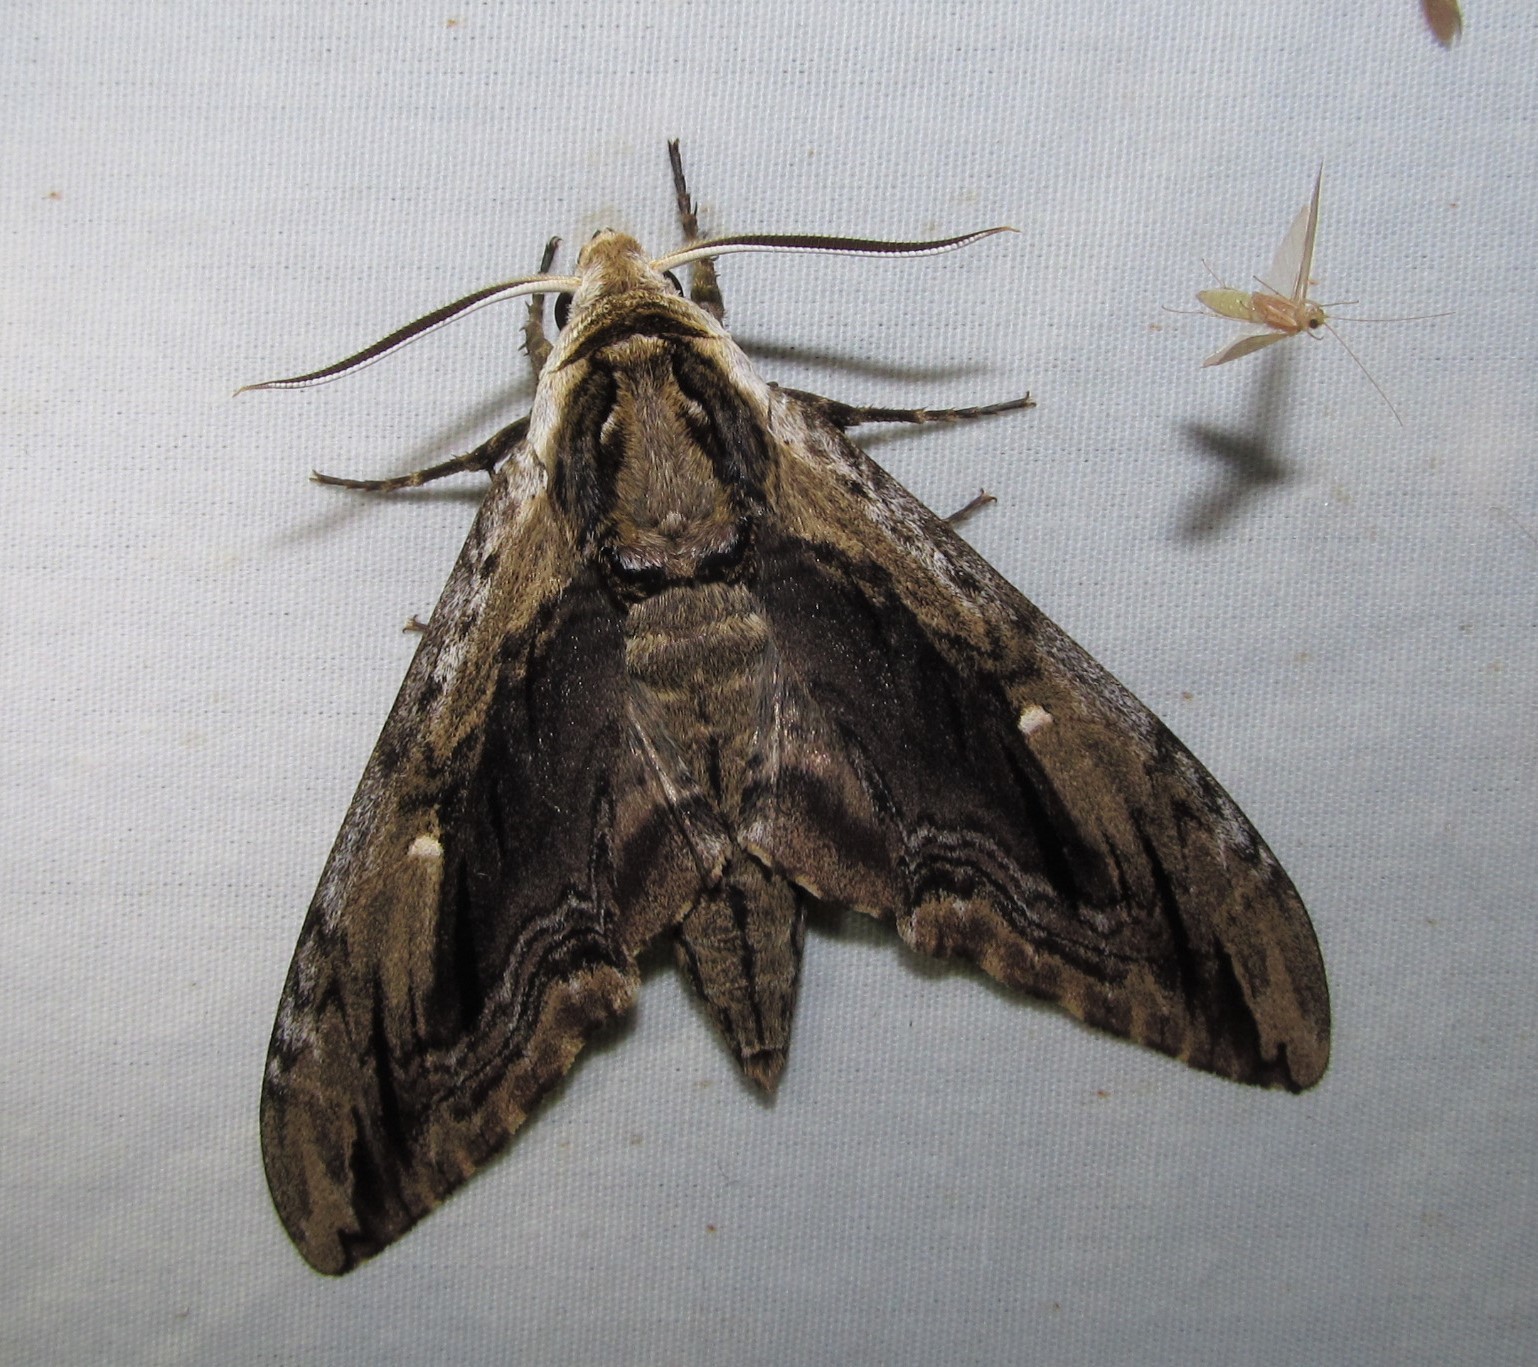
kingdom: Animalia
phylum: Arthropoda
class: Insecta
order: Lepidoptera
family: Sphingidae
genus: Ceratomia
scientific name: Ceratomia amyntor
